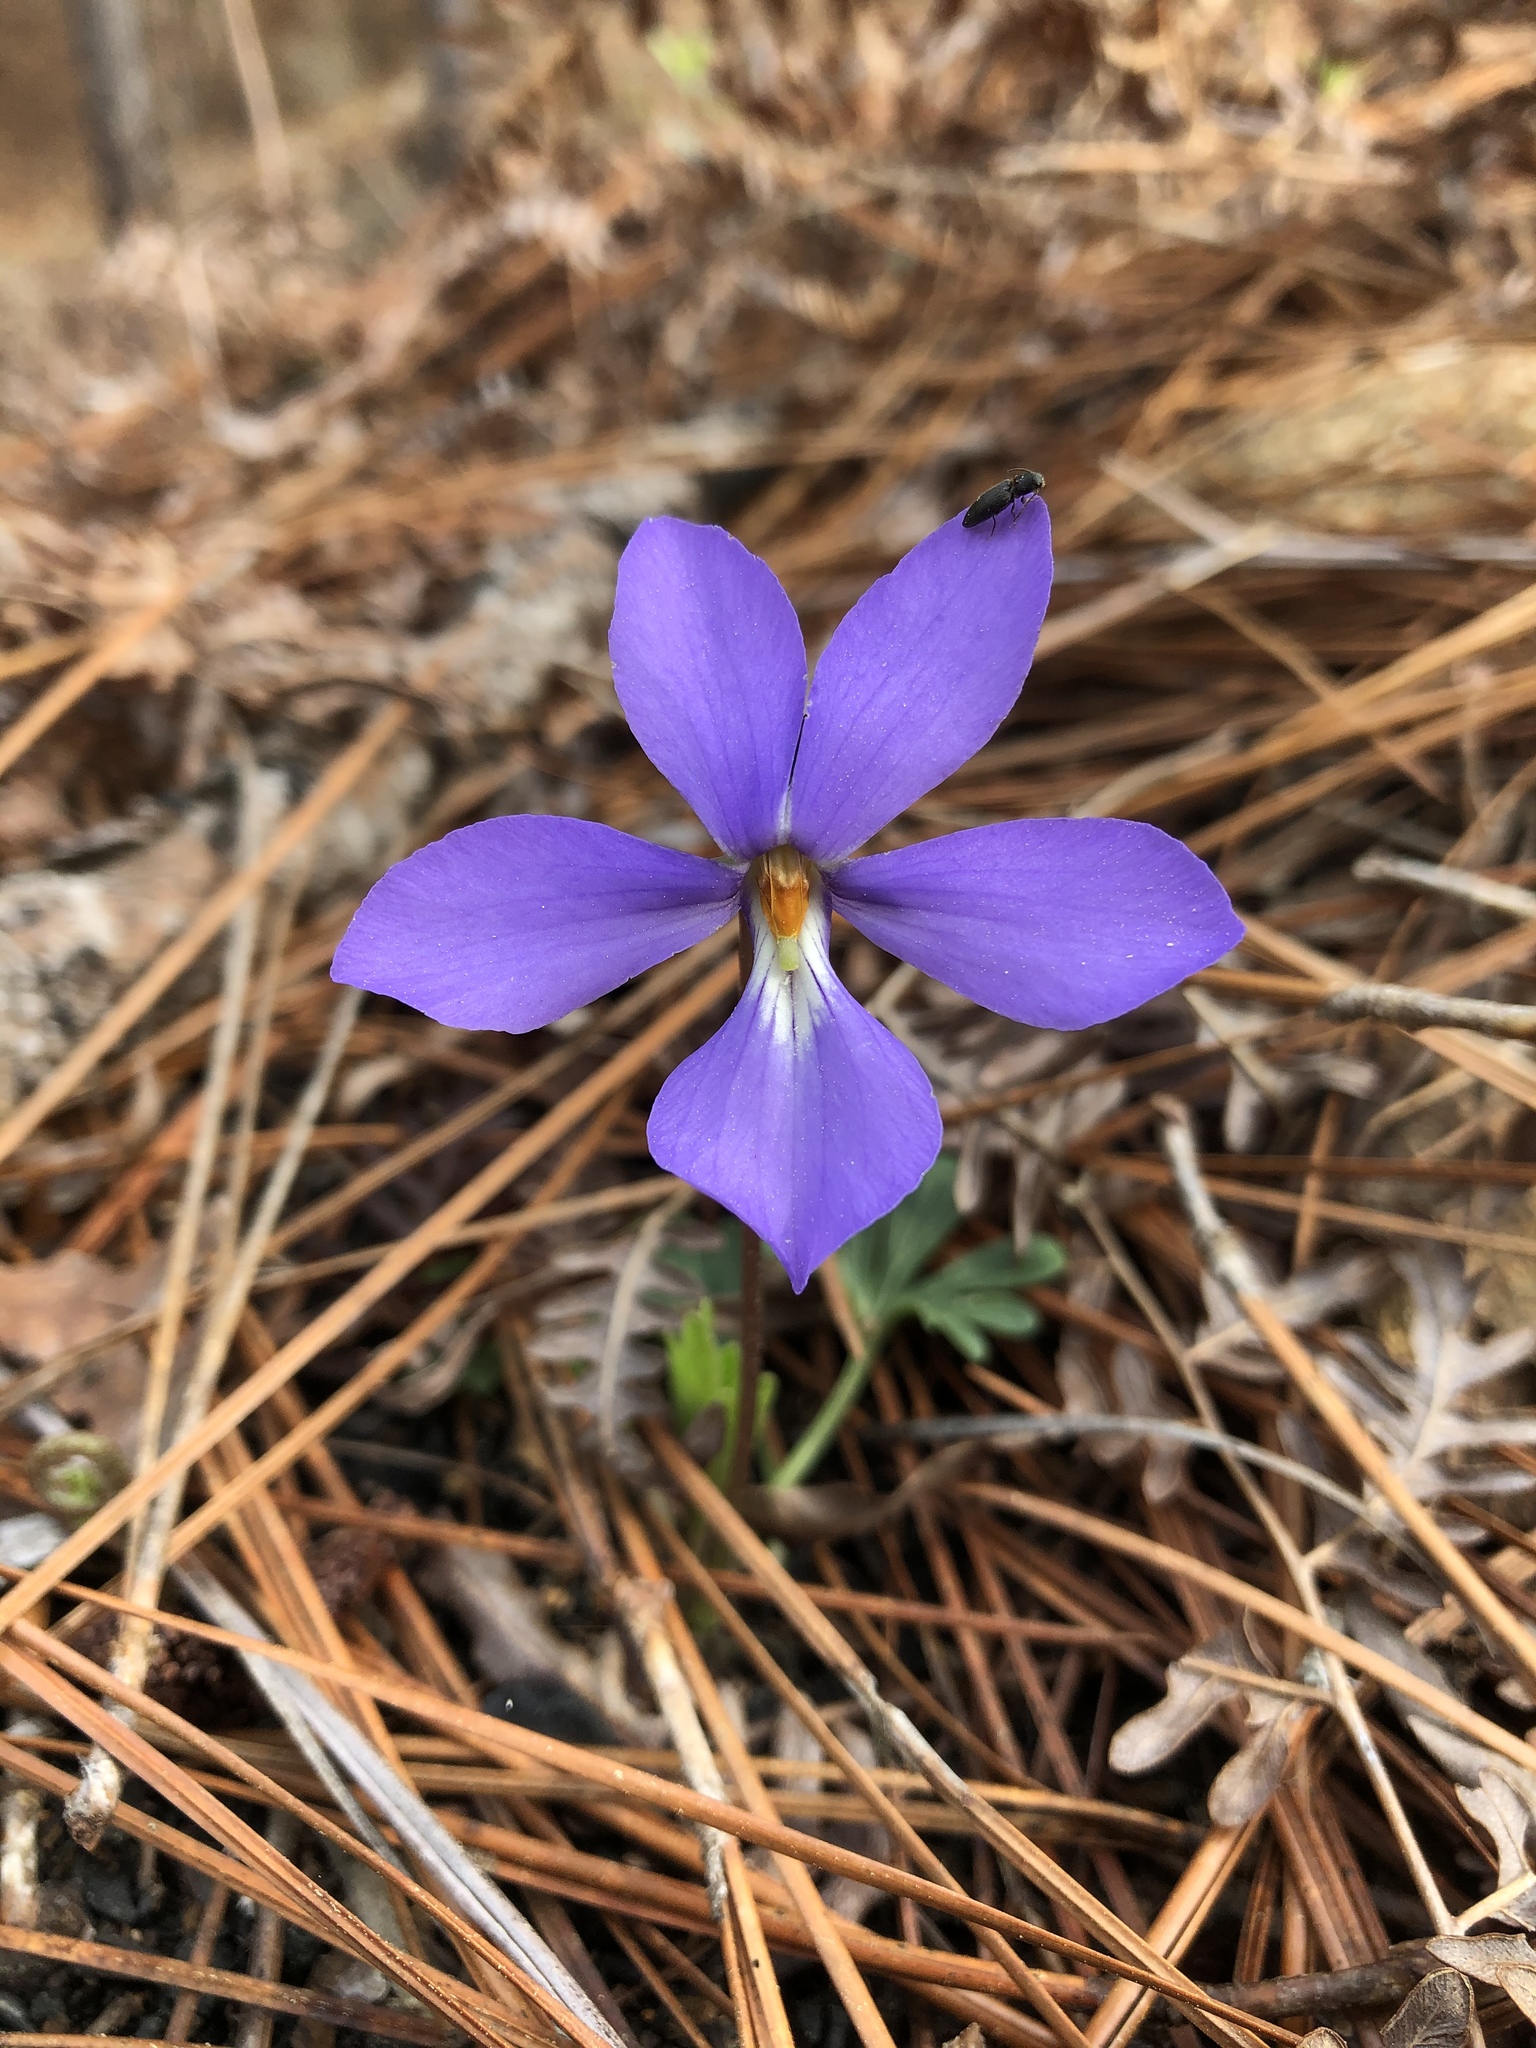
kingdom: Plantae
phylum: Tracheophyta
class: Magnoliopsida
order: Malpighiales
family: Violaceae
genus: Viola
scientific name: Viola pedata
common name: Pansy violet
